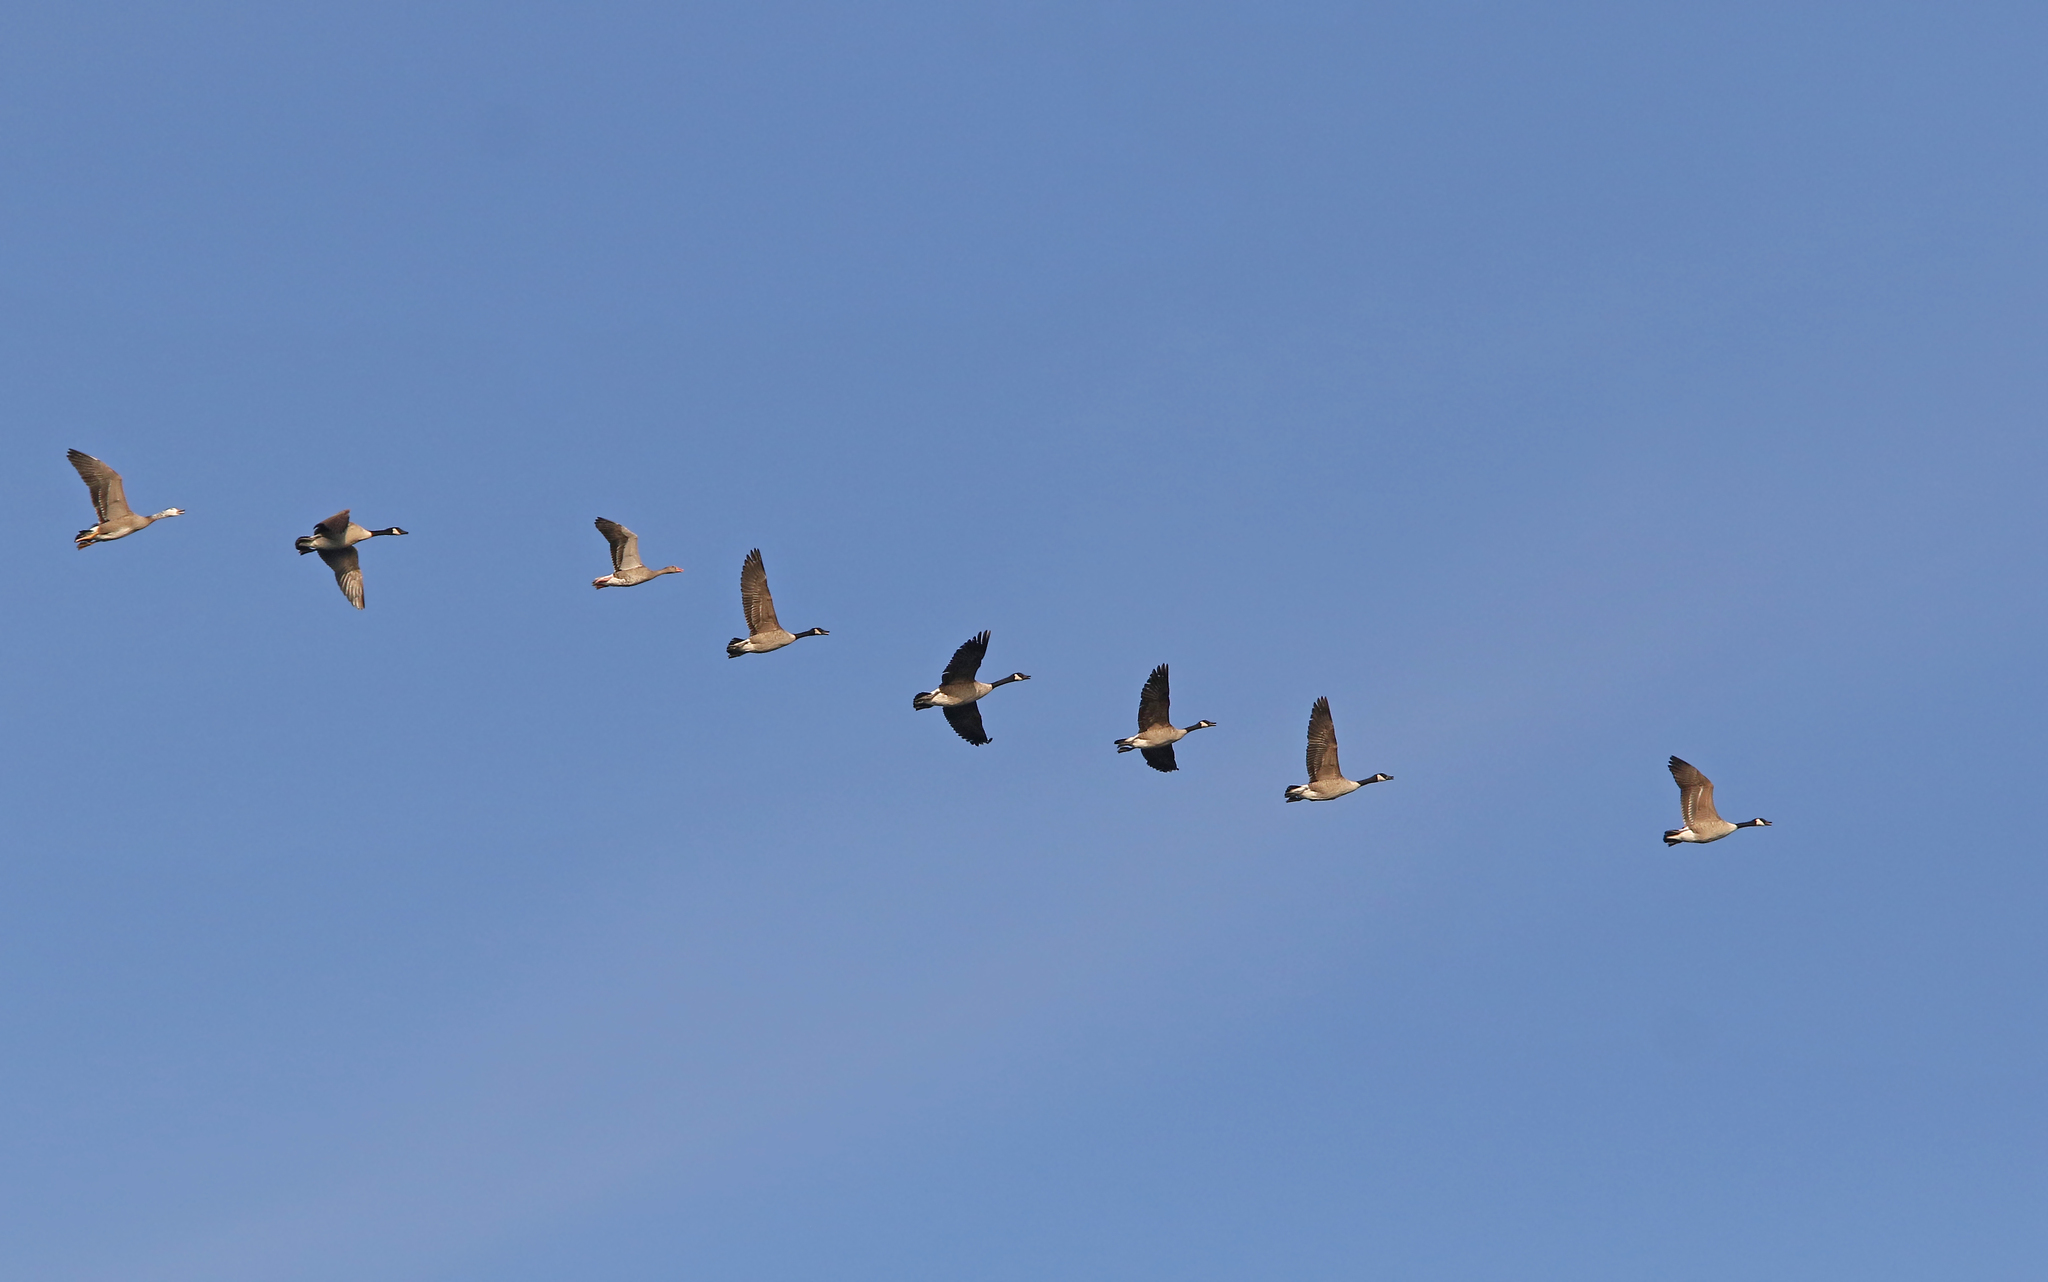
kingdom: Animalia
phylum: Chordata
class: Aves
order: Anseriformes
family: Anatidae
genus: Branta
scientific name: Branta canadensis
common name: Canada goose
